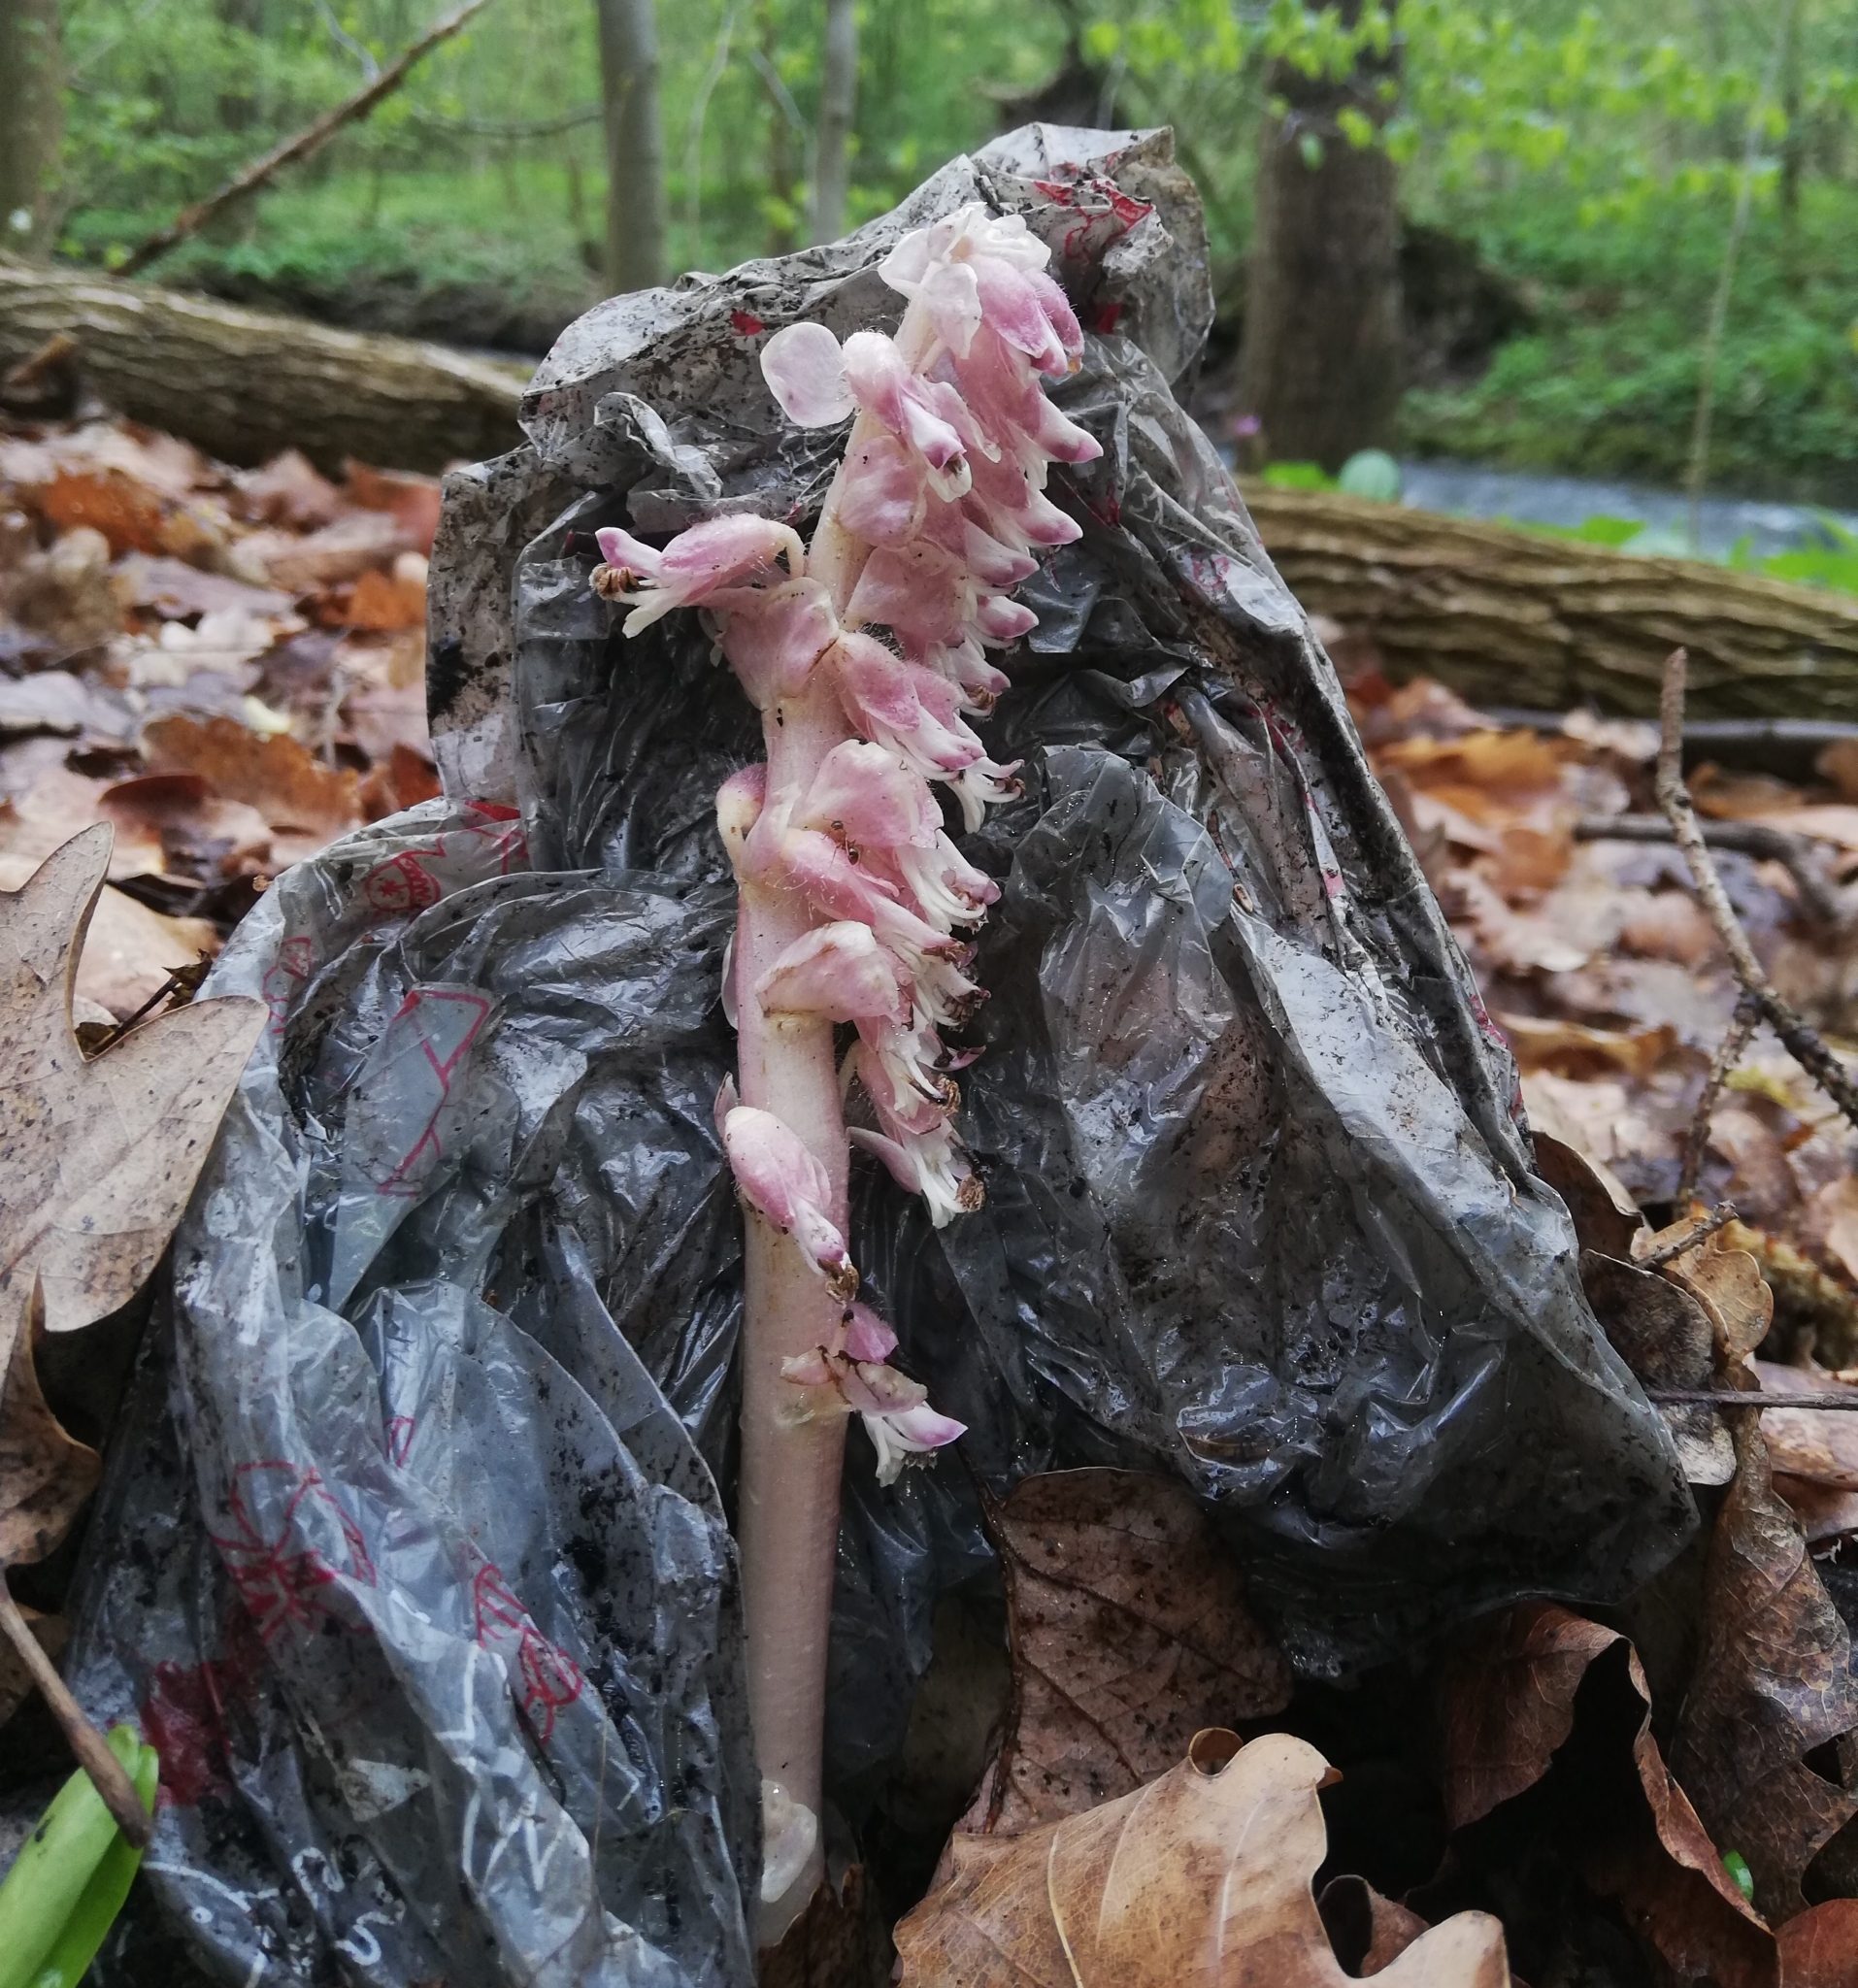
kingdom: Plantae
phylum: Tracheophyta
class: Magnoliopsida
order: Lamiales
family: Orobanchaceae
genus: Lathraea
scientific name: Lathraea squamaria
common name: Toothwort
